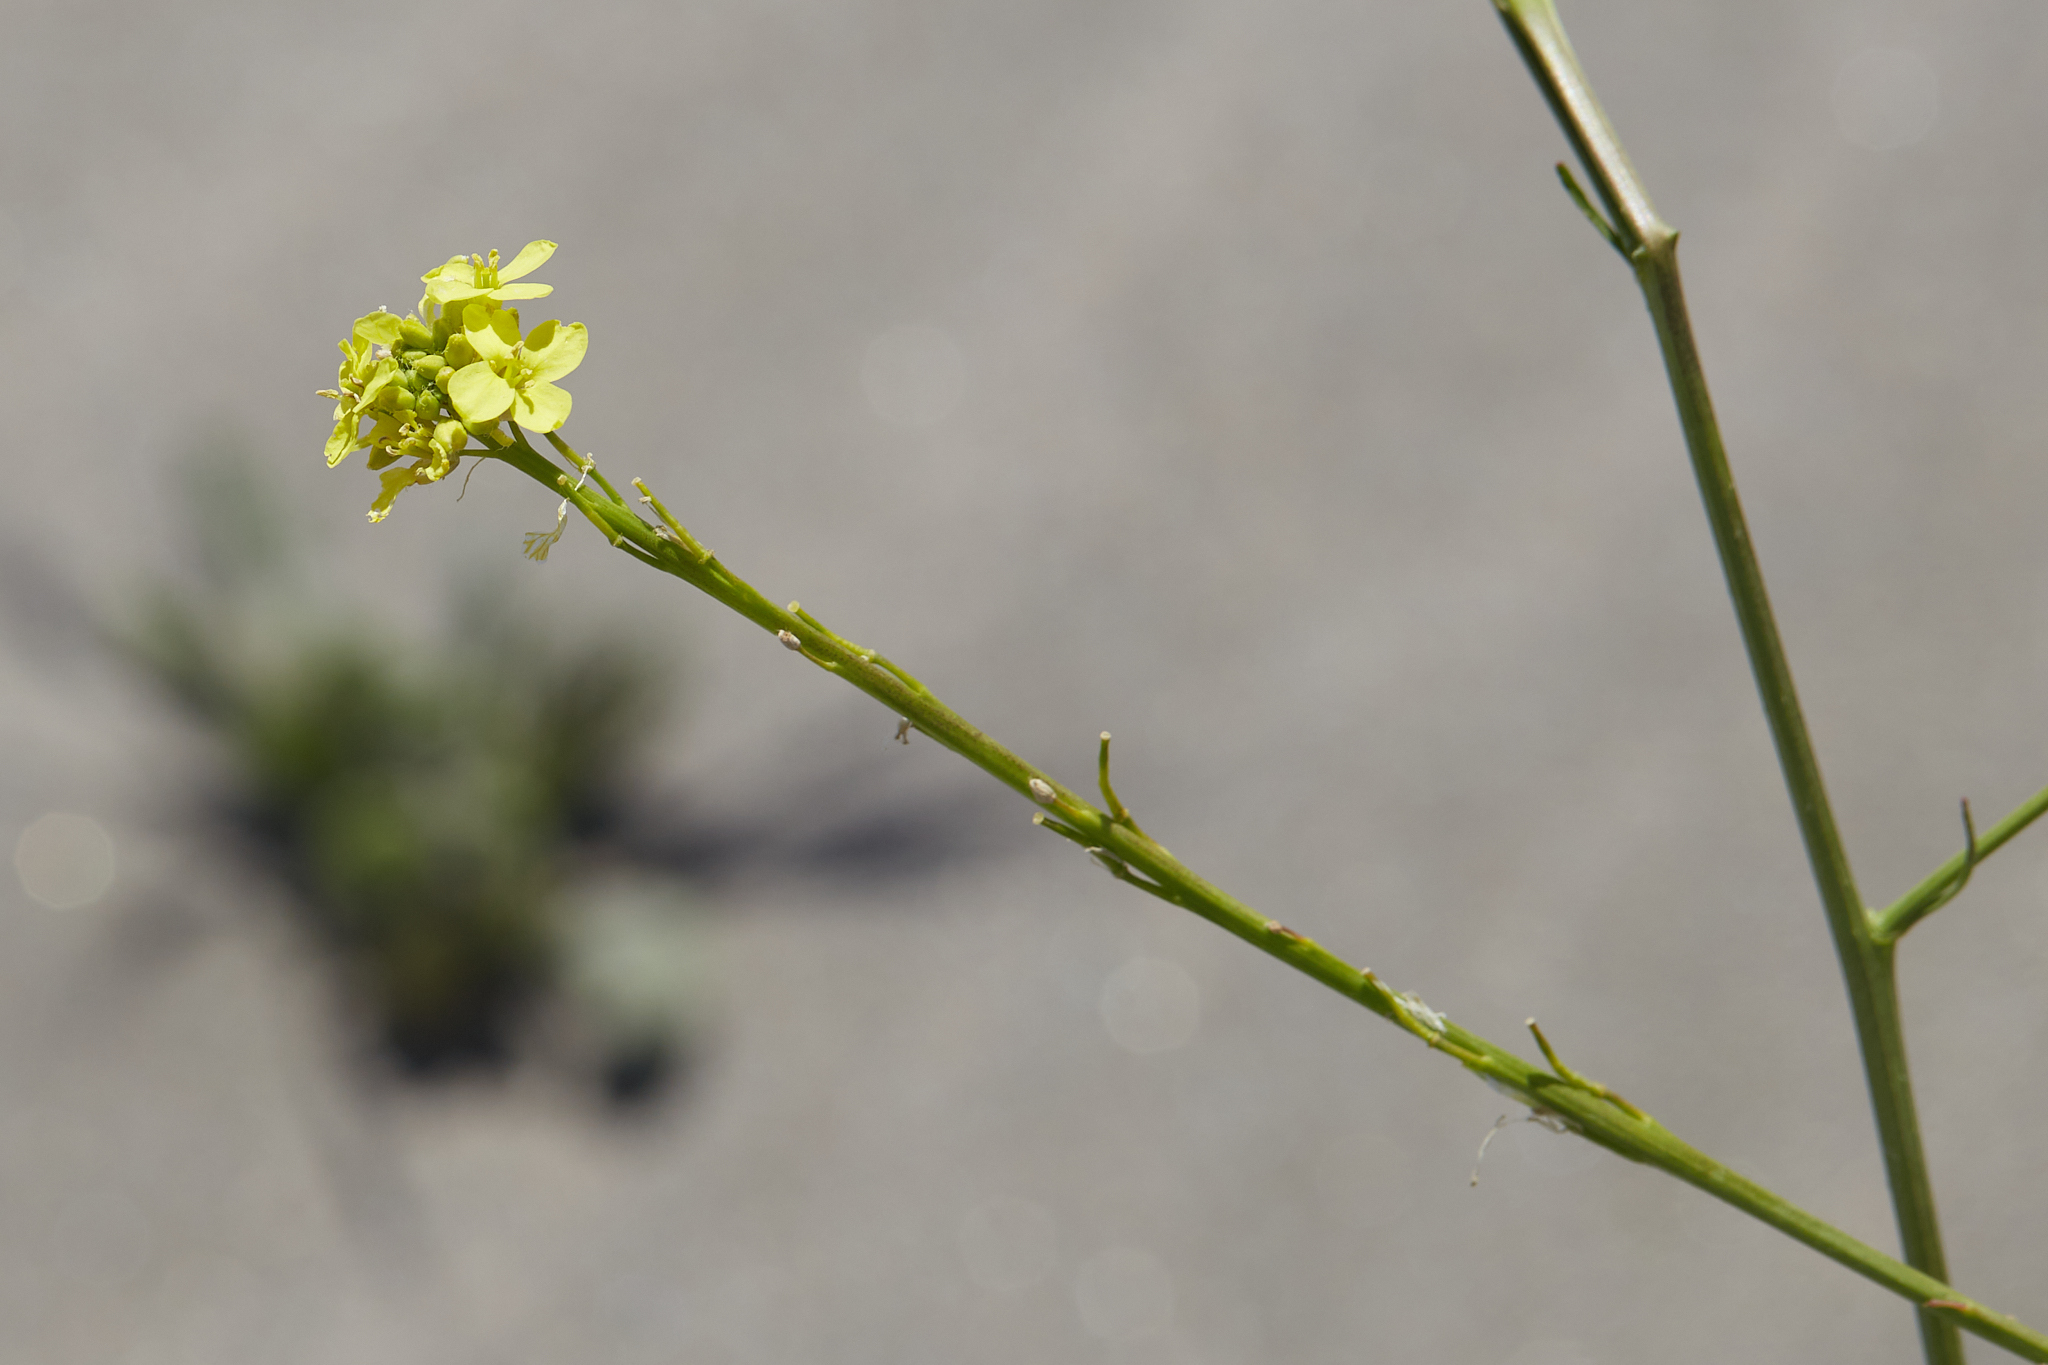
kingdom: Plantae
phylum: Tracheophyta
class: Magnoliopsida
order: Brassicales
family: Brassicaceae
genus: Hirschfeldia
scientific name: Hirschfeldia incana
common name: Hoary mustard
